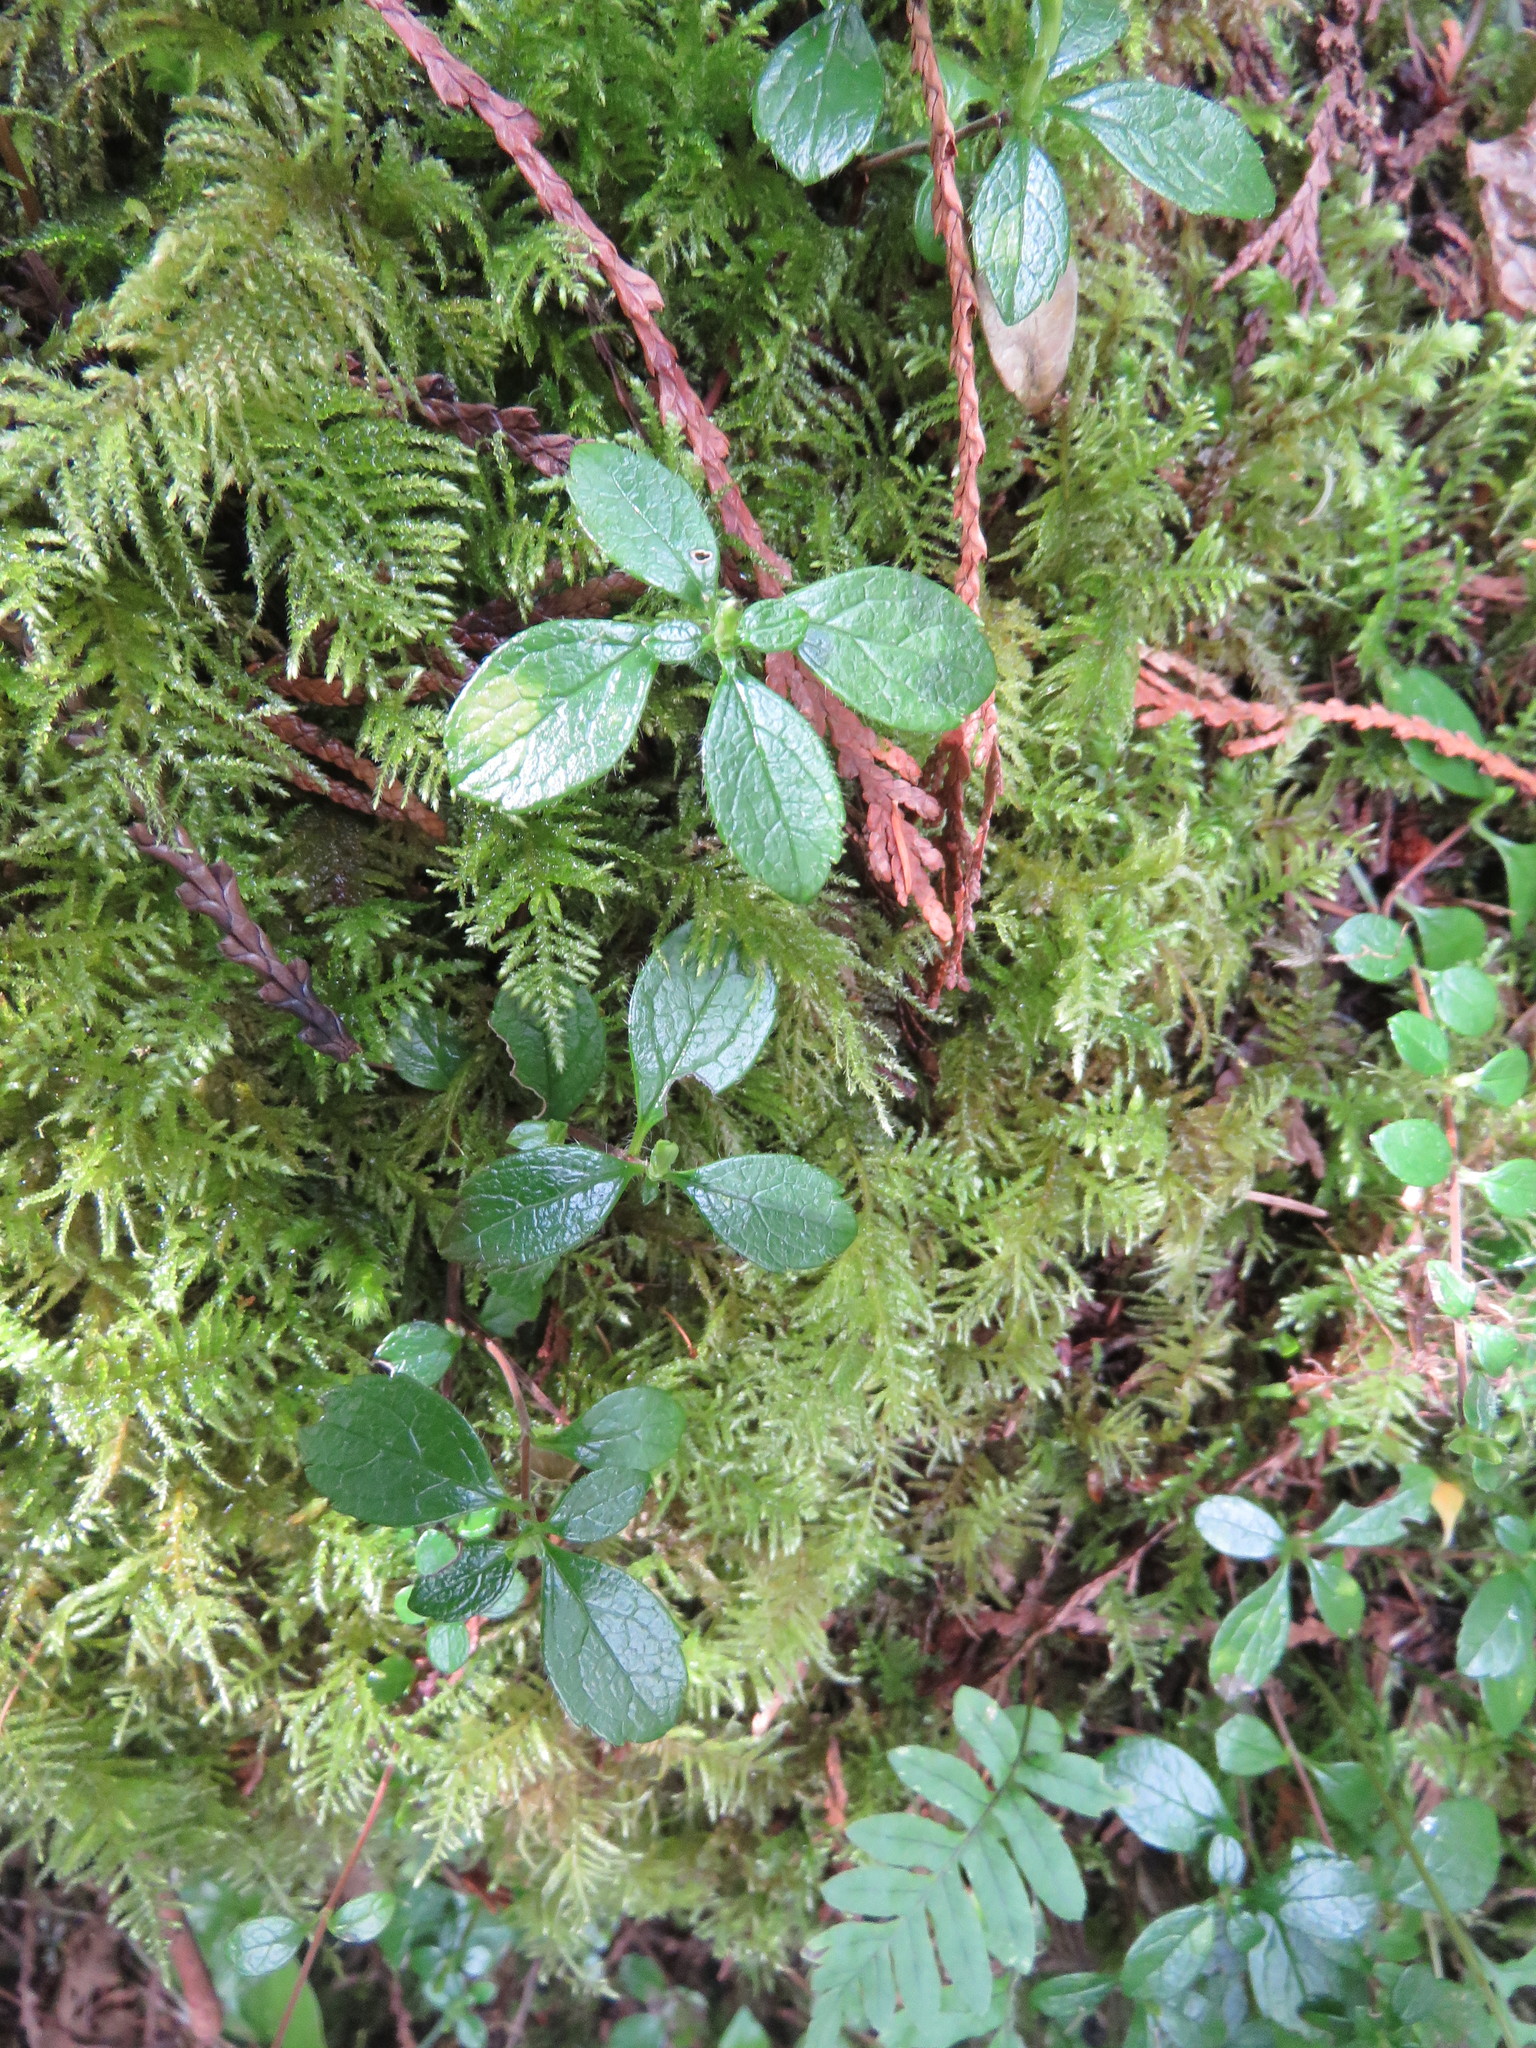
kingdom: Plantae
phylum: Tracheophyta
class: Magnoliopsida
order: Dipsacales
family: Caprifoliaceae
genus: Linnaea
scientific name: Linnaea borealis
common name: Twinflower
